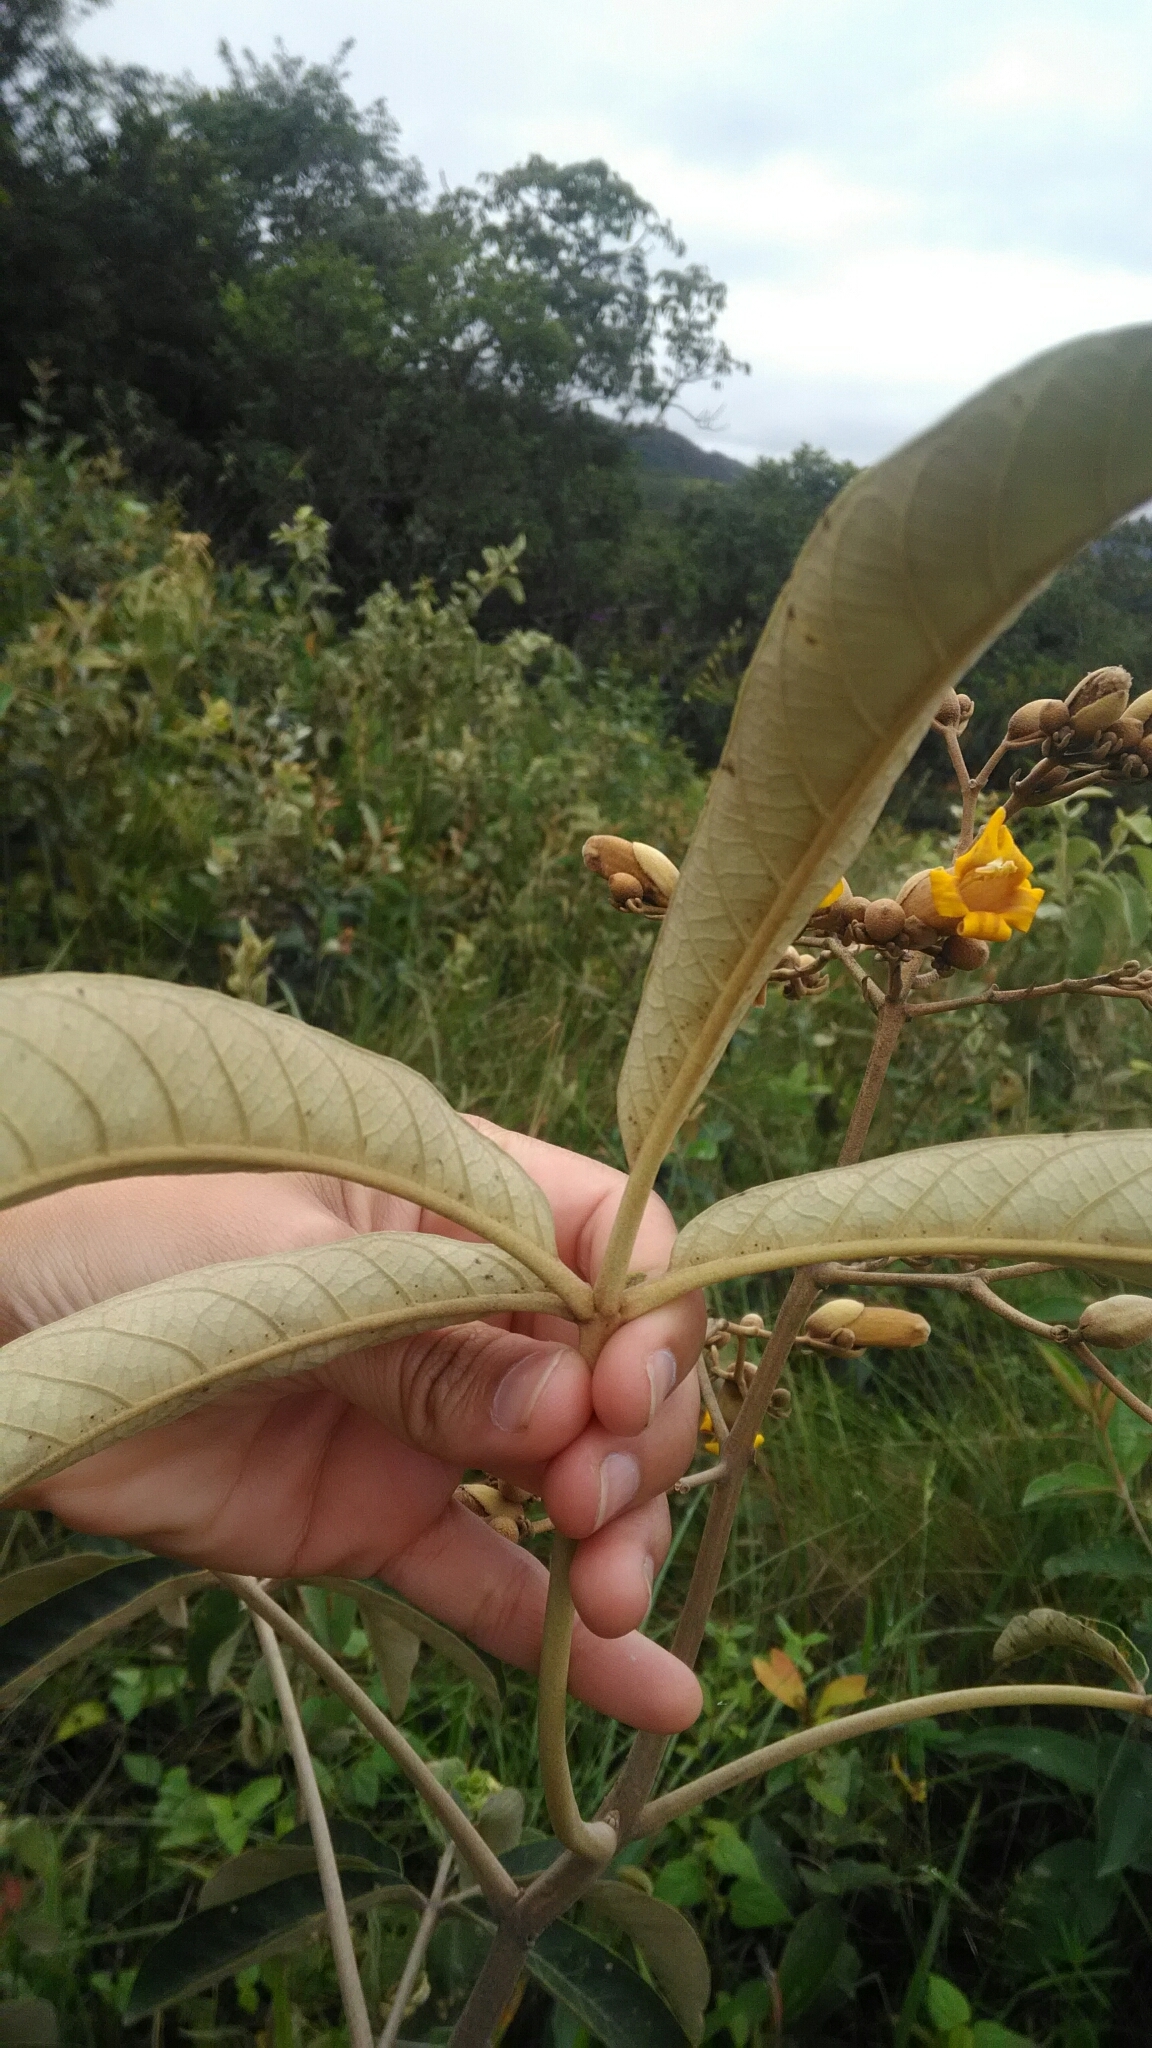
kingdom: Plantae
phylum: Tracheophyta
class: Magnoliopsida
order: Lamiales
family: Bignoniaceae
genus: Zeyheria
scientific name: Zeyheria montana
